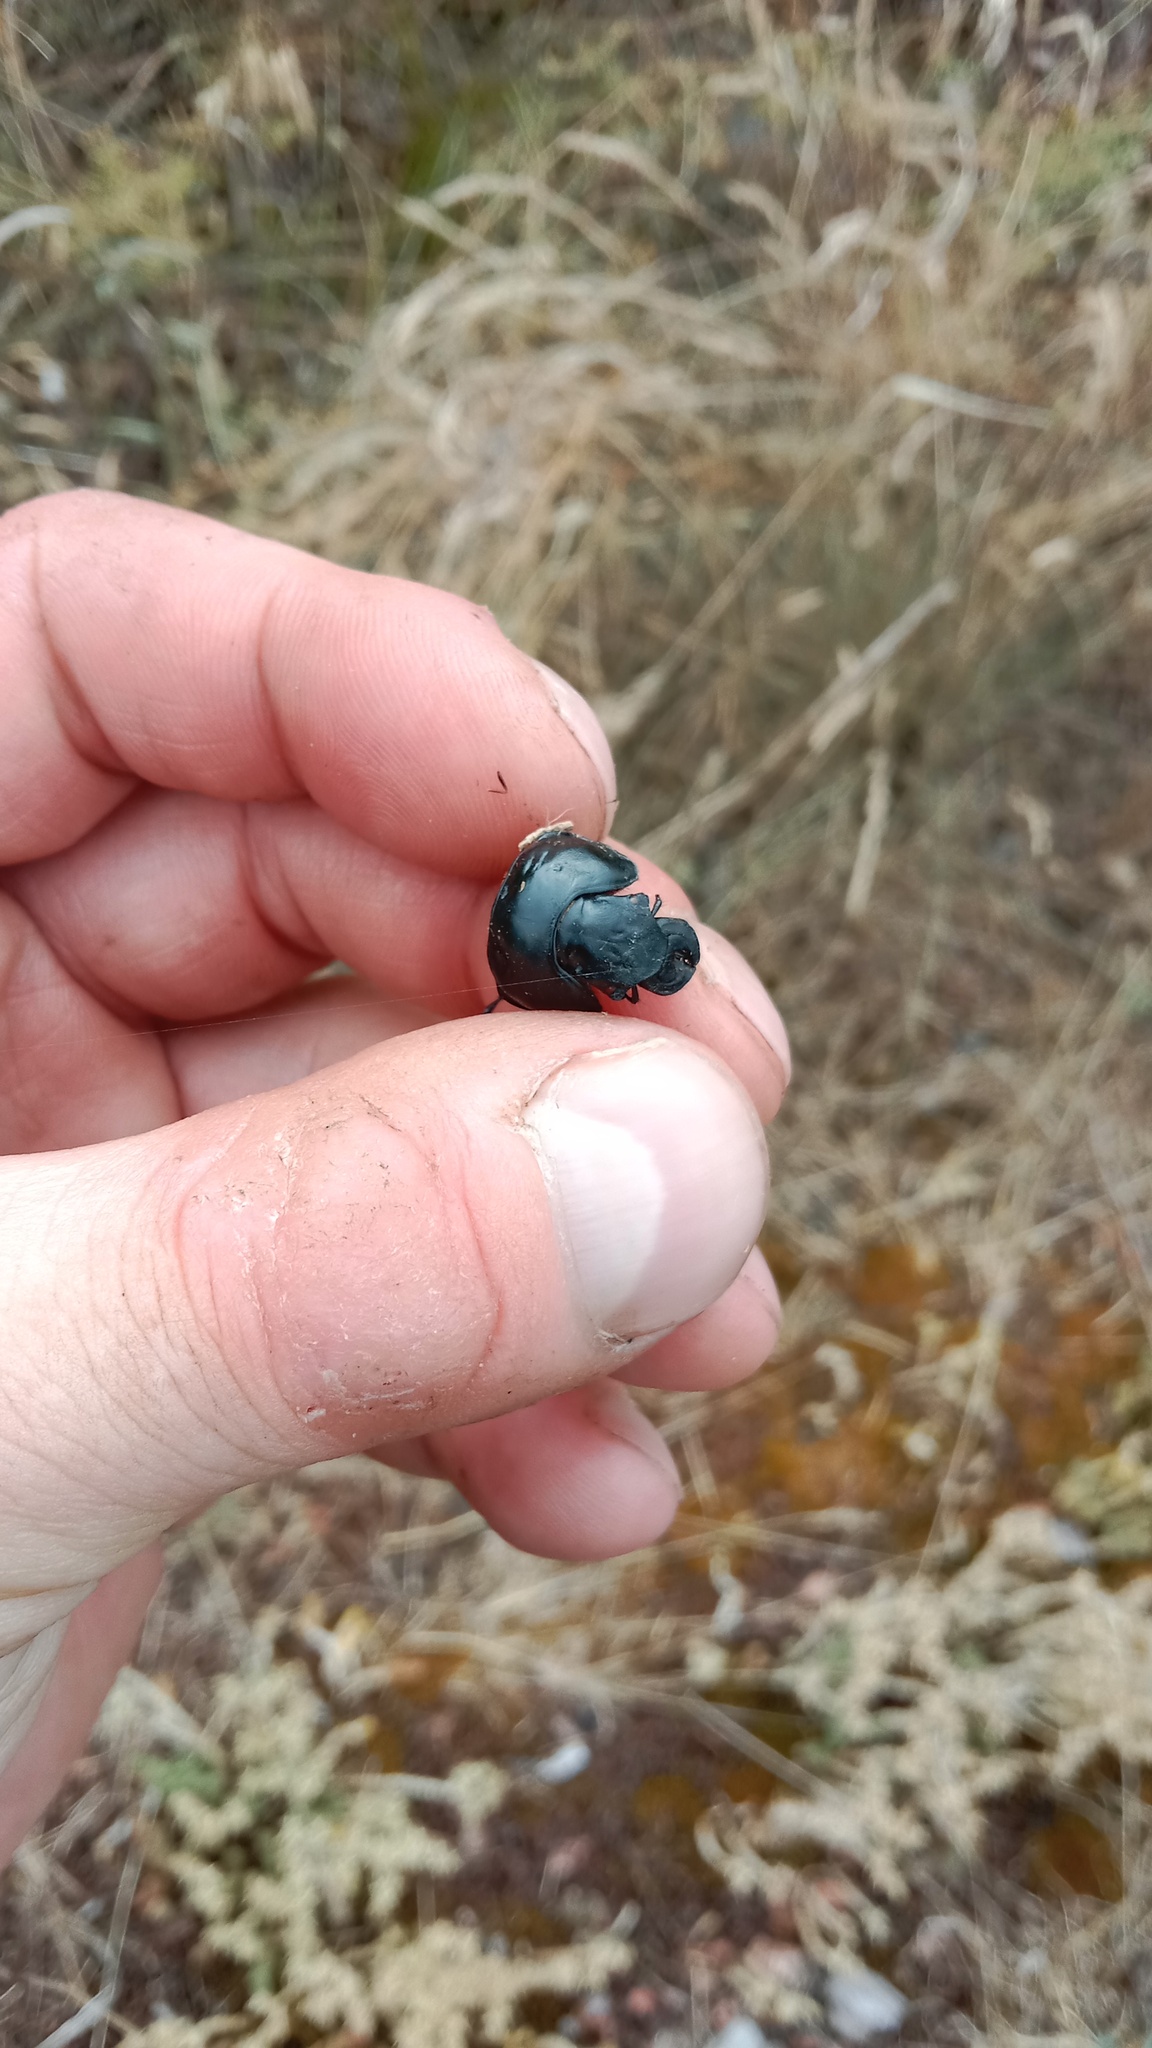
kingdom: Animalia
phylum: Arthropoda
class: Insecta
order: Coleoptera
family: Geotrupidae
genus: Lethrus
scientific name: Lethrus apterus
